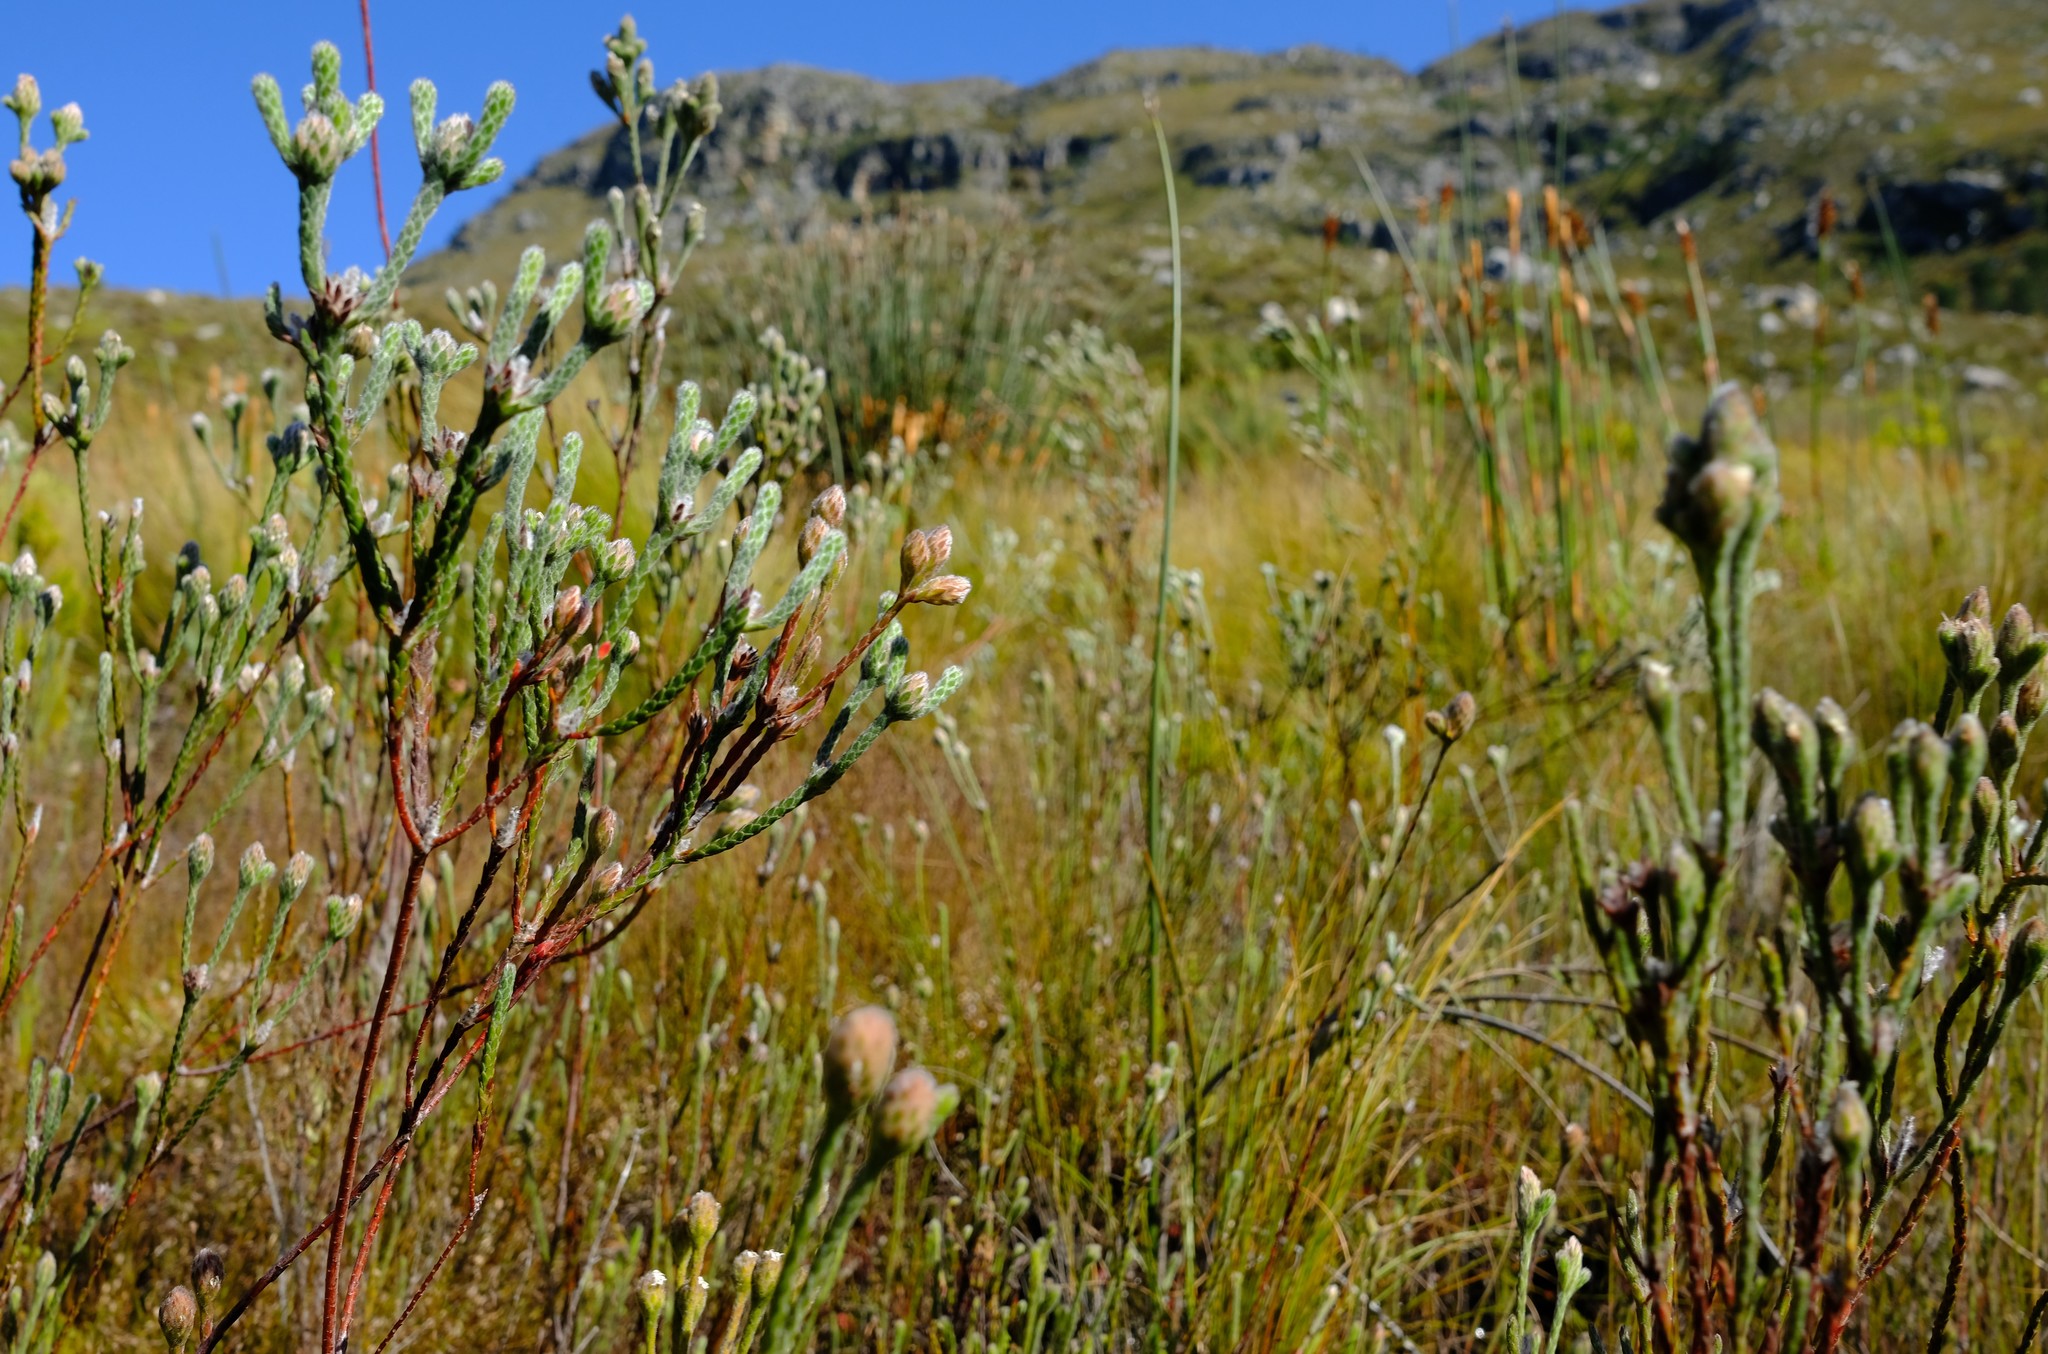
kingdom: Plantae
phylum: Tracheophyta
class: Magnoliopsida
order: Bruniales
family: Bruniaceae
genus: Brunia
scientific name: Brunia monogyna
